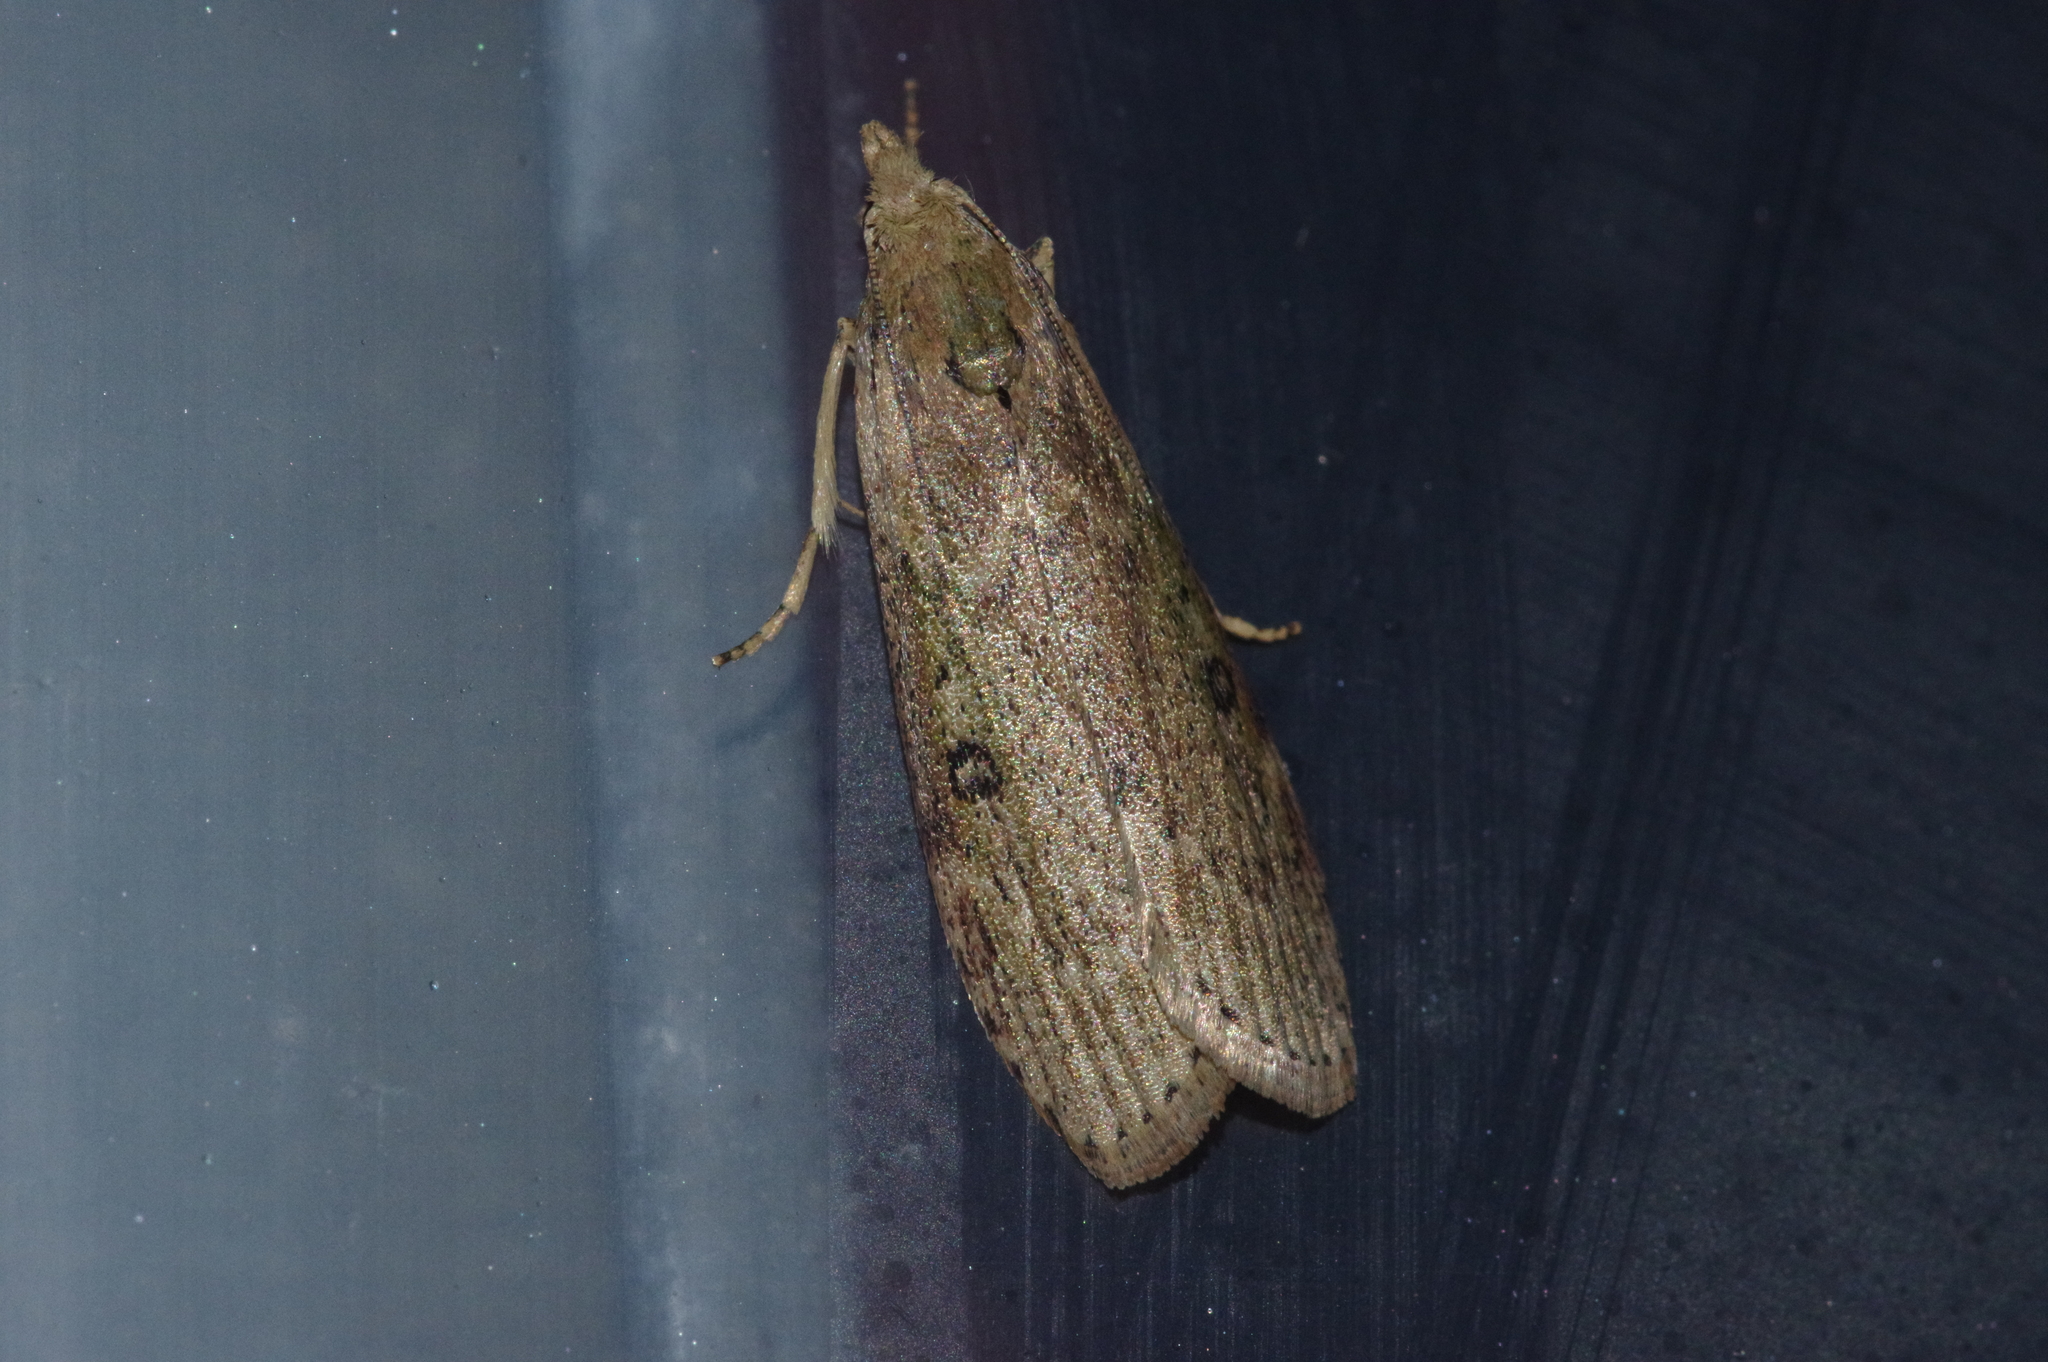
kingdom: Animalia
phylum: Arthropoda
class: Insecta
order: Lepidoptera
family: Pyralidae
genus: Lamoria
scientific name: Lamoria adaptella
